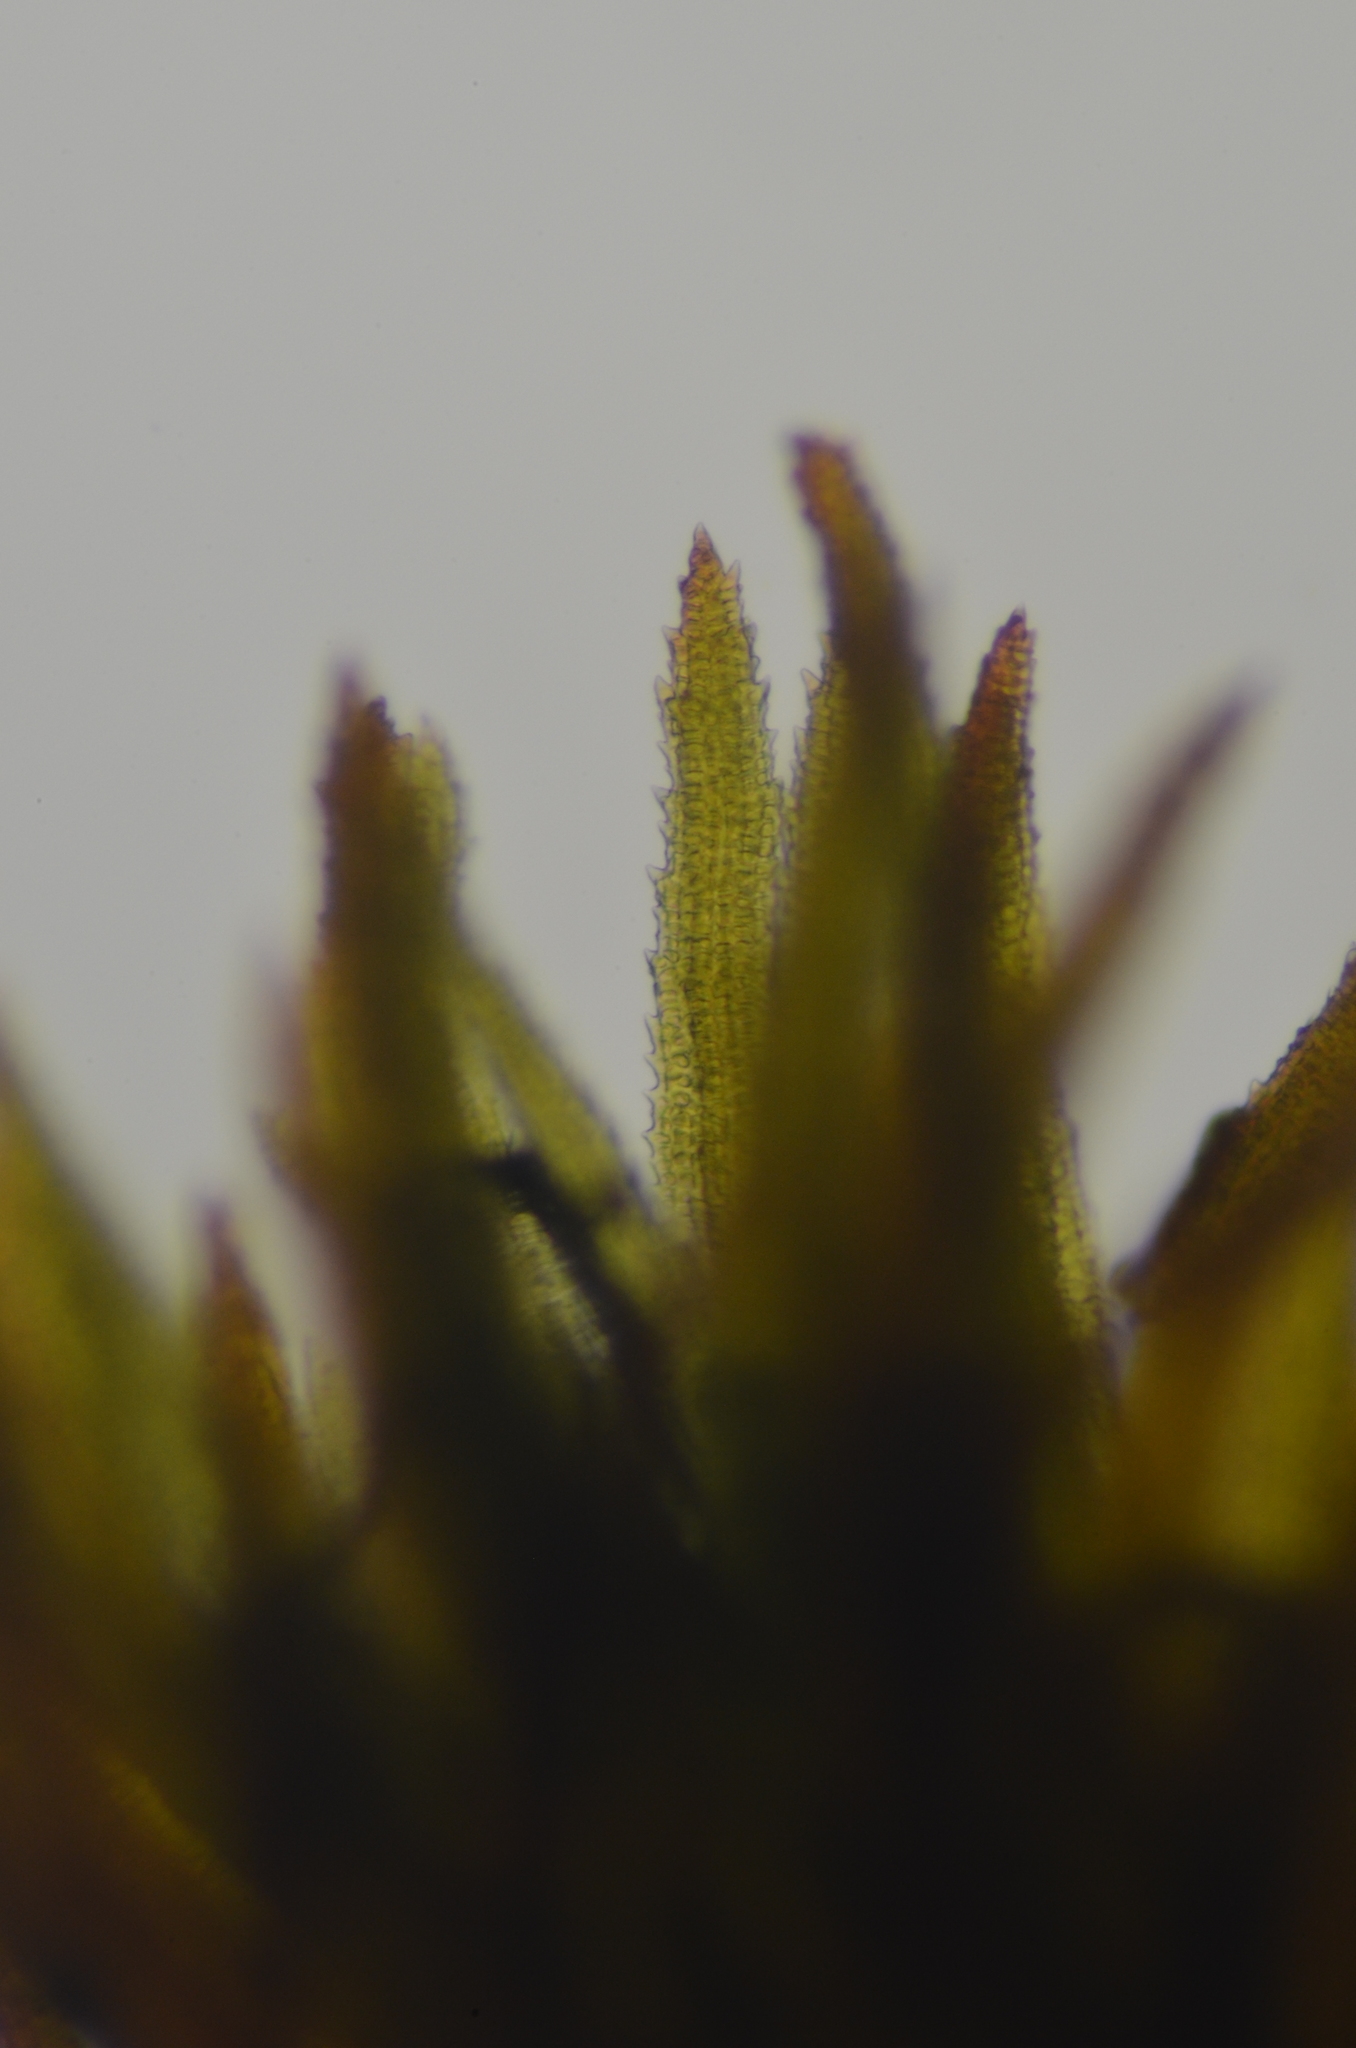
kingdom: Plantae
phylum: Bryophyta
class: Andreaeopsida
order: Andreaeales
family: Andreaeaceae
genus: Andreaea
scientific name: Andreaea nivalis
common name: Snow rock moss
